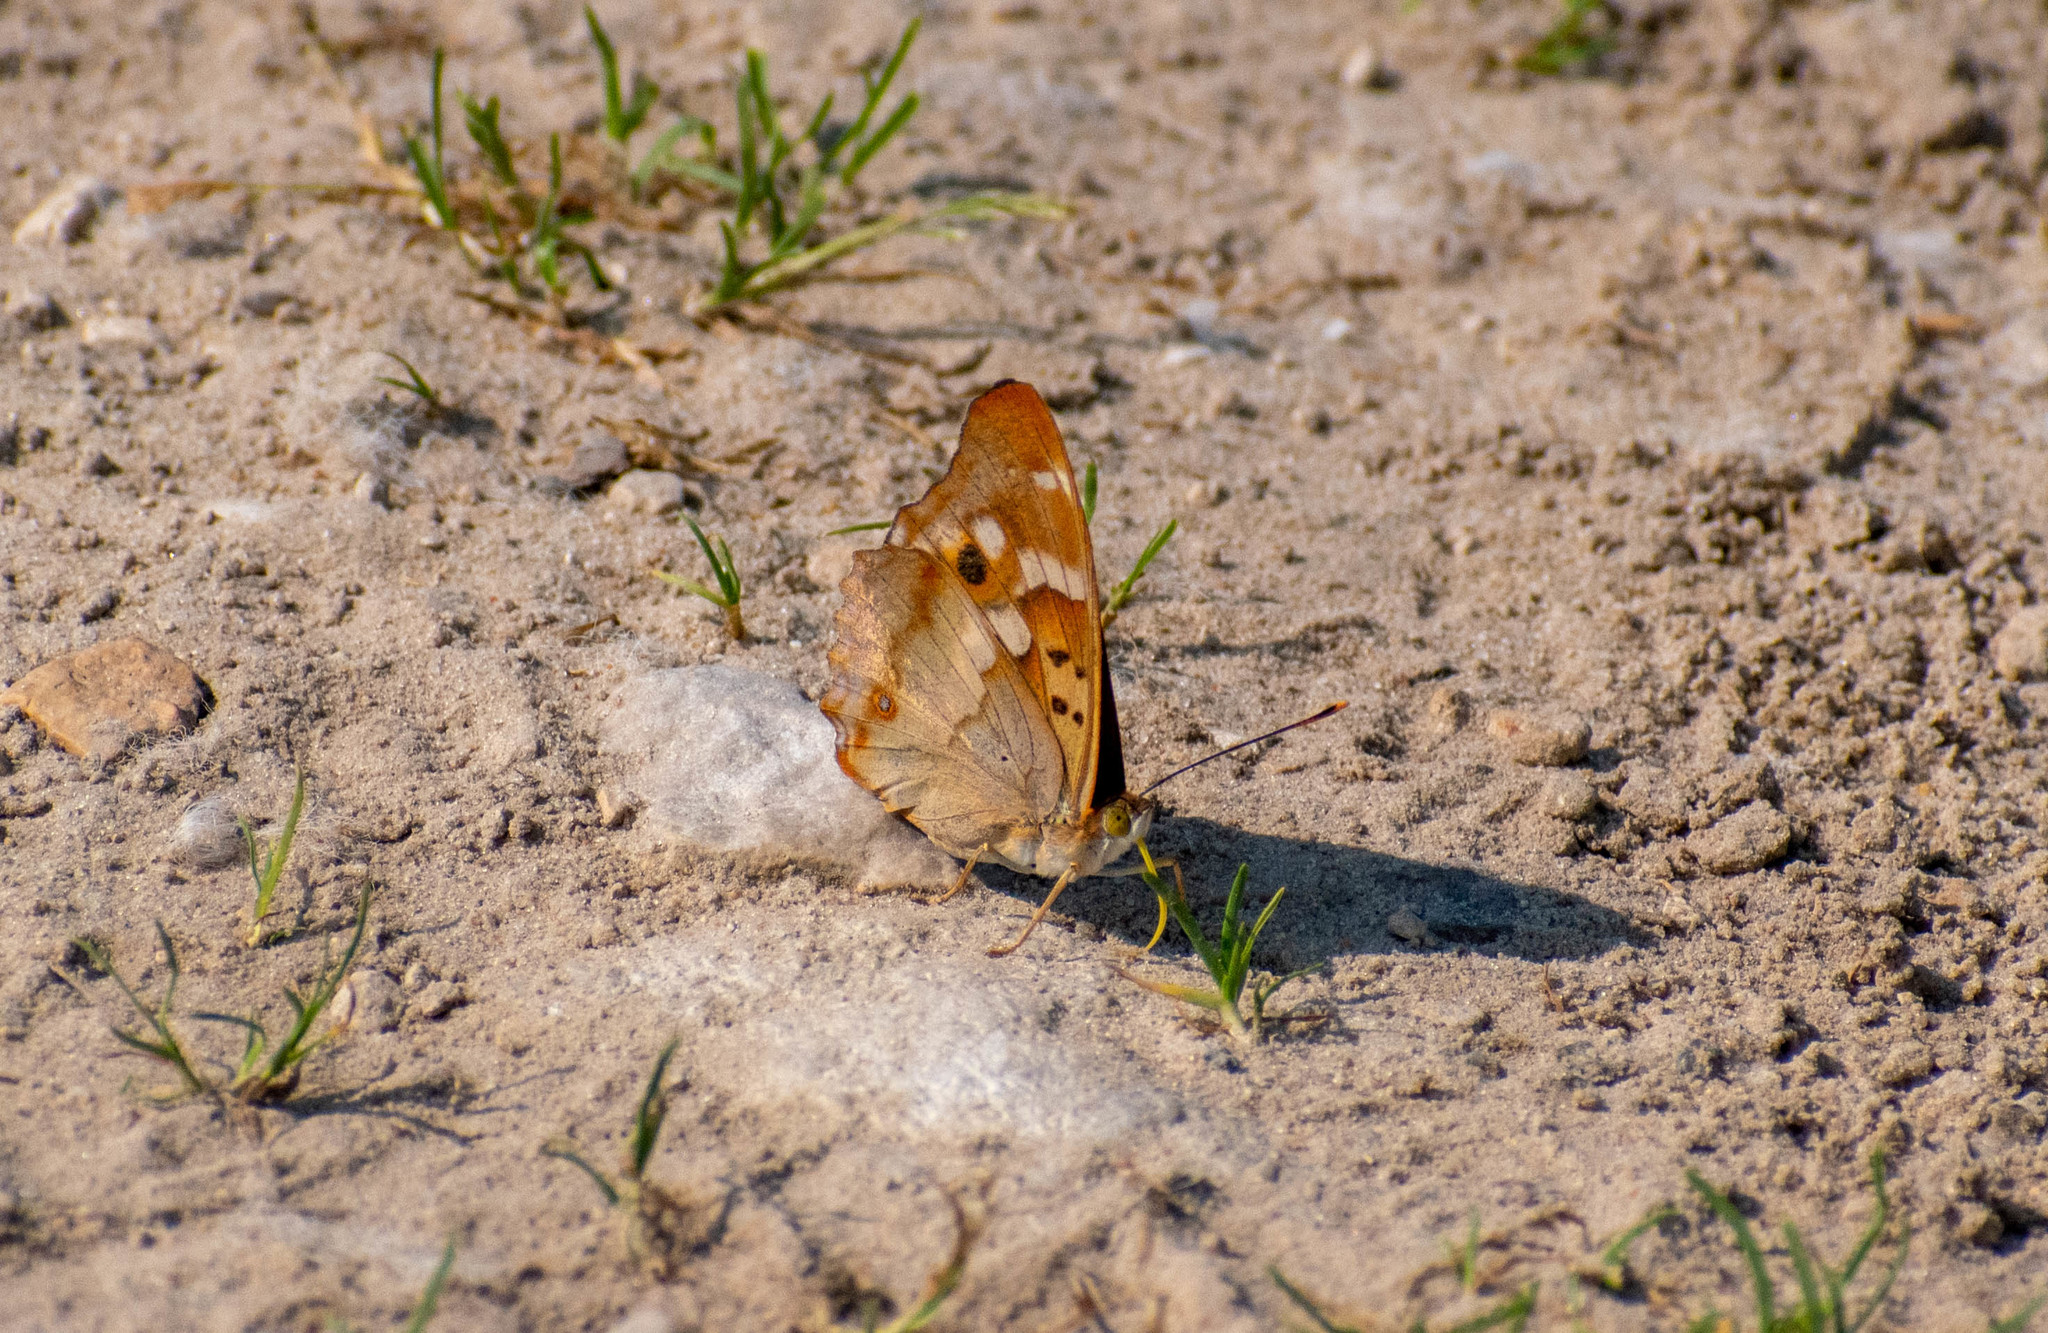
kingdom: Animalia
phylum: Arthropoda
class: Insecta
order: Lepidoptera
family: Nymphalidae
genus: Apatura
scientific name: Apatura ilia
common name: Lesser purple emperor
